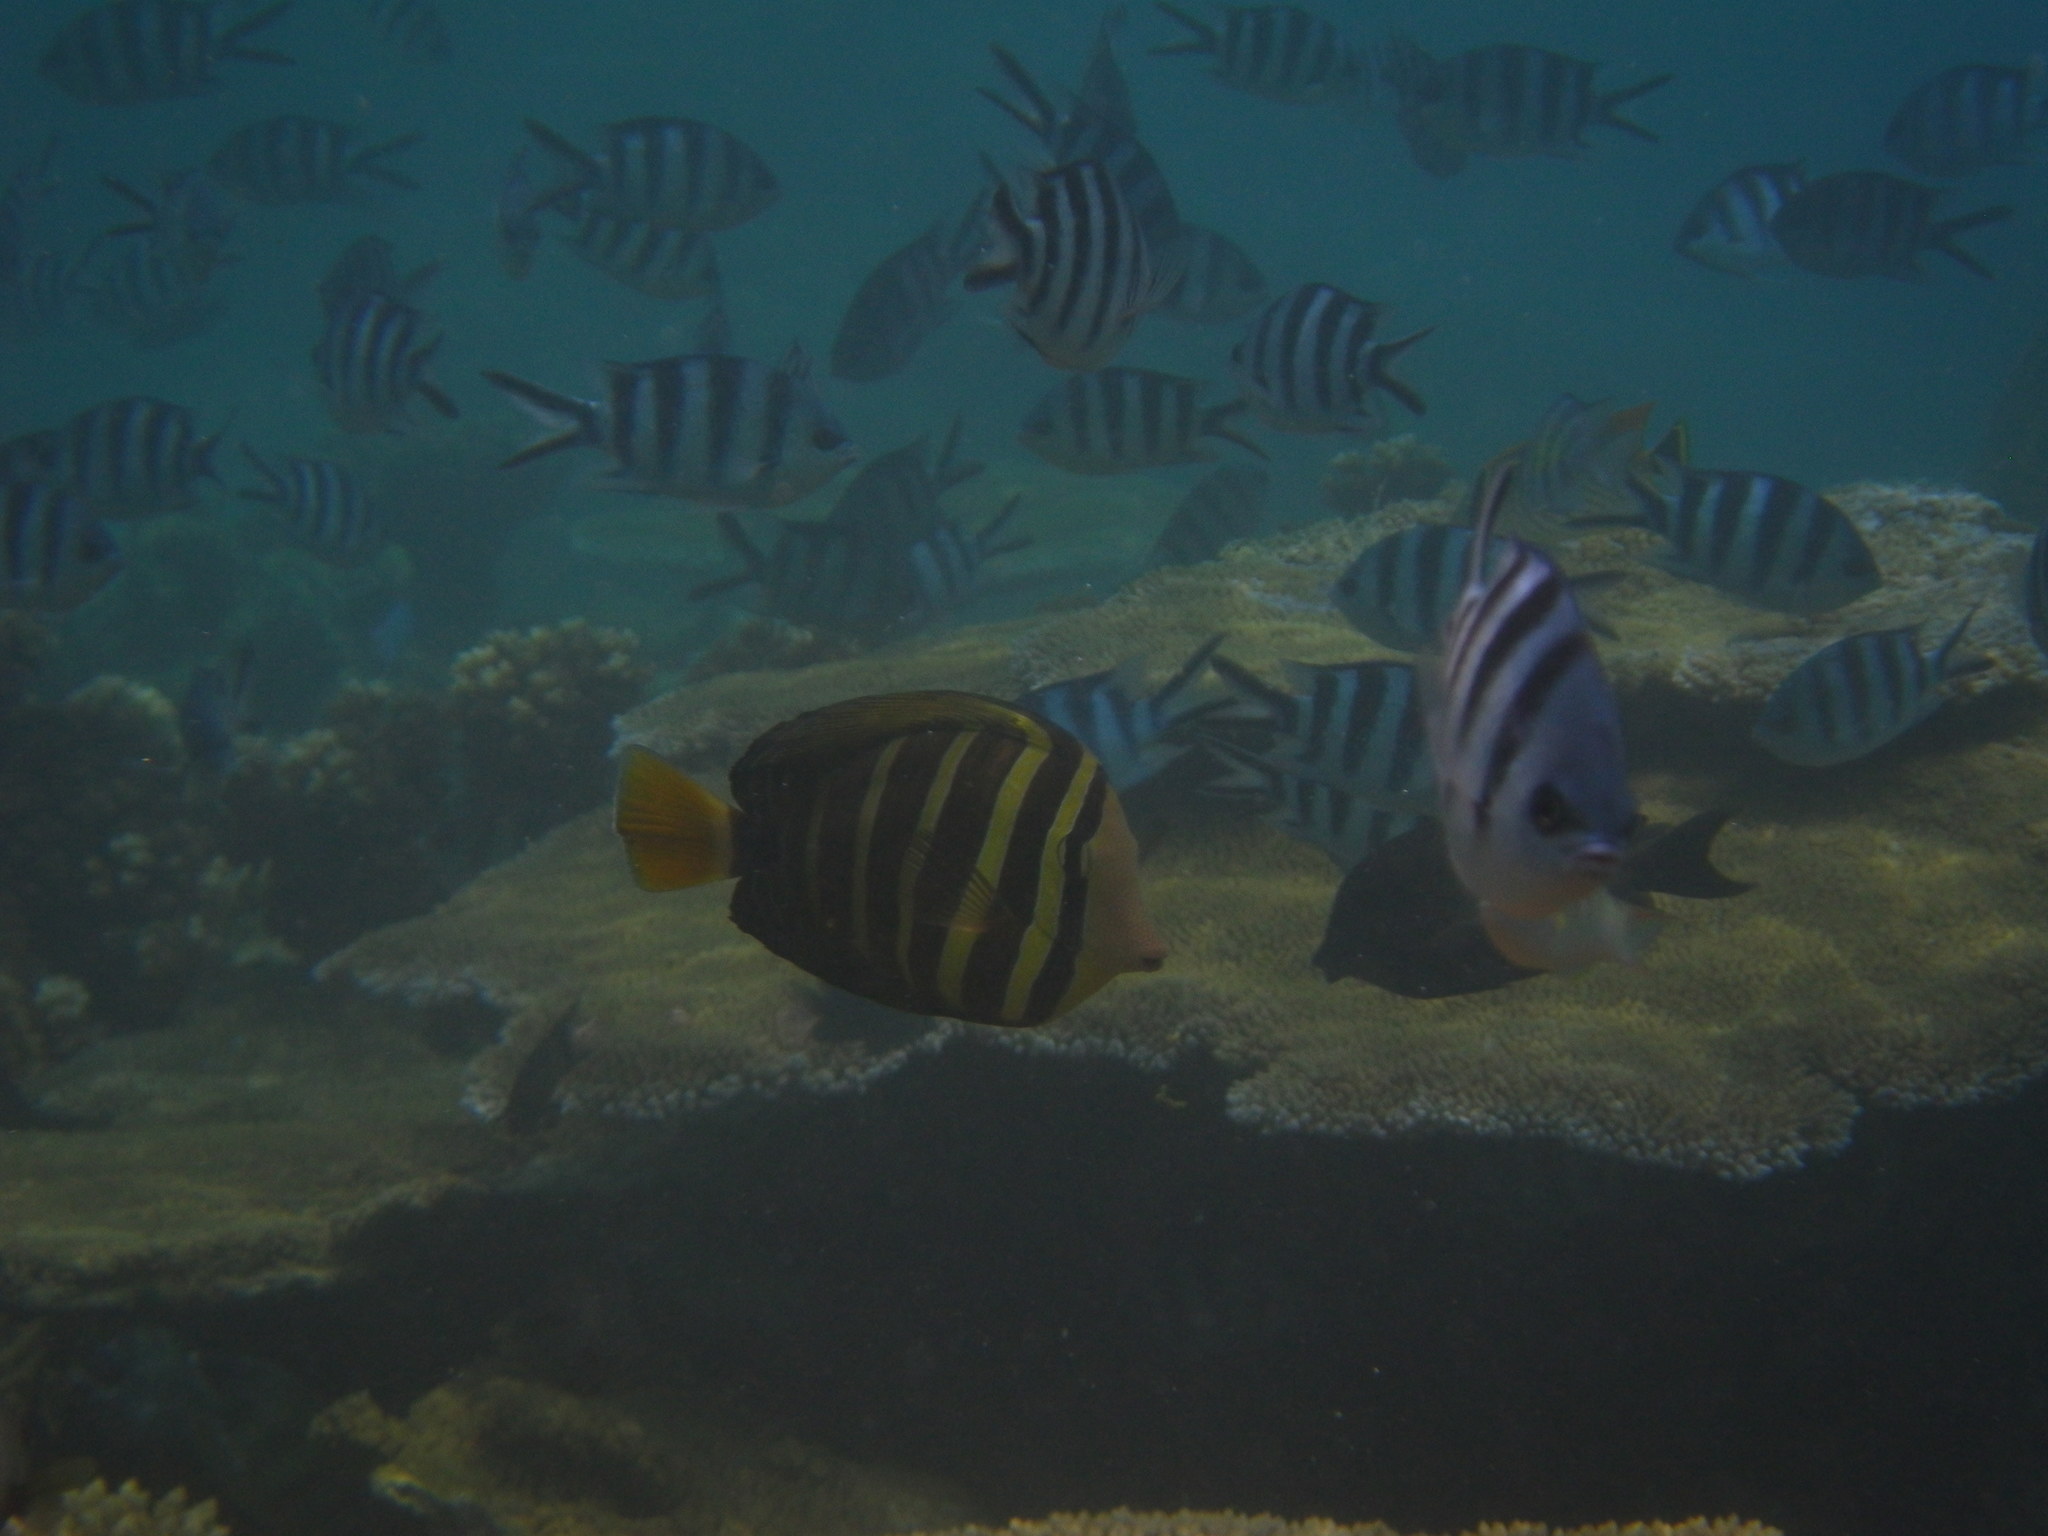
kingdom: Animalia
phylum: Chordata
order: Perciformes
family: Acanthuridae
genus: Zebrasoma
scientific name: Zebrasoma veliferum
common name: Sailfin surgeonfish
